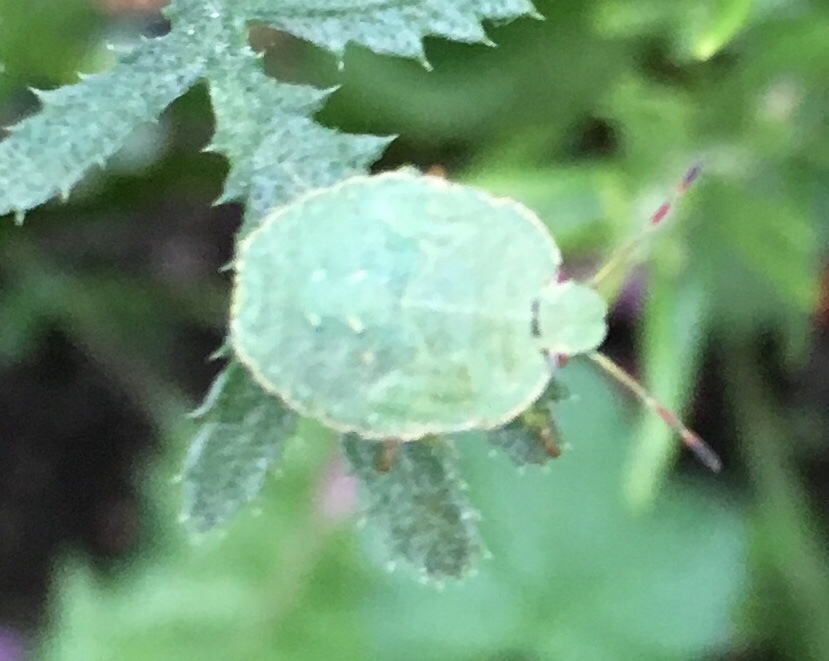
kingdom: Animalia
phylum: Arthropoda
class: Insecta
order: Hemiptera
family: Pentatomidae
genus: Palomena
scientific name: Palomena prasina
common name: Green shieldbug
